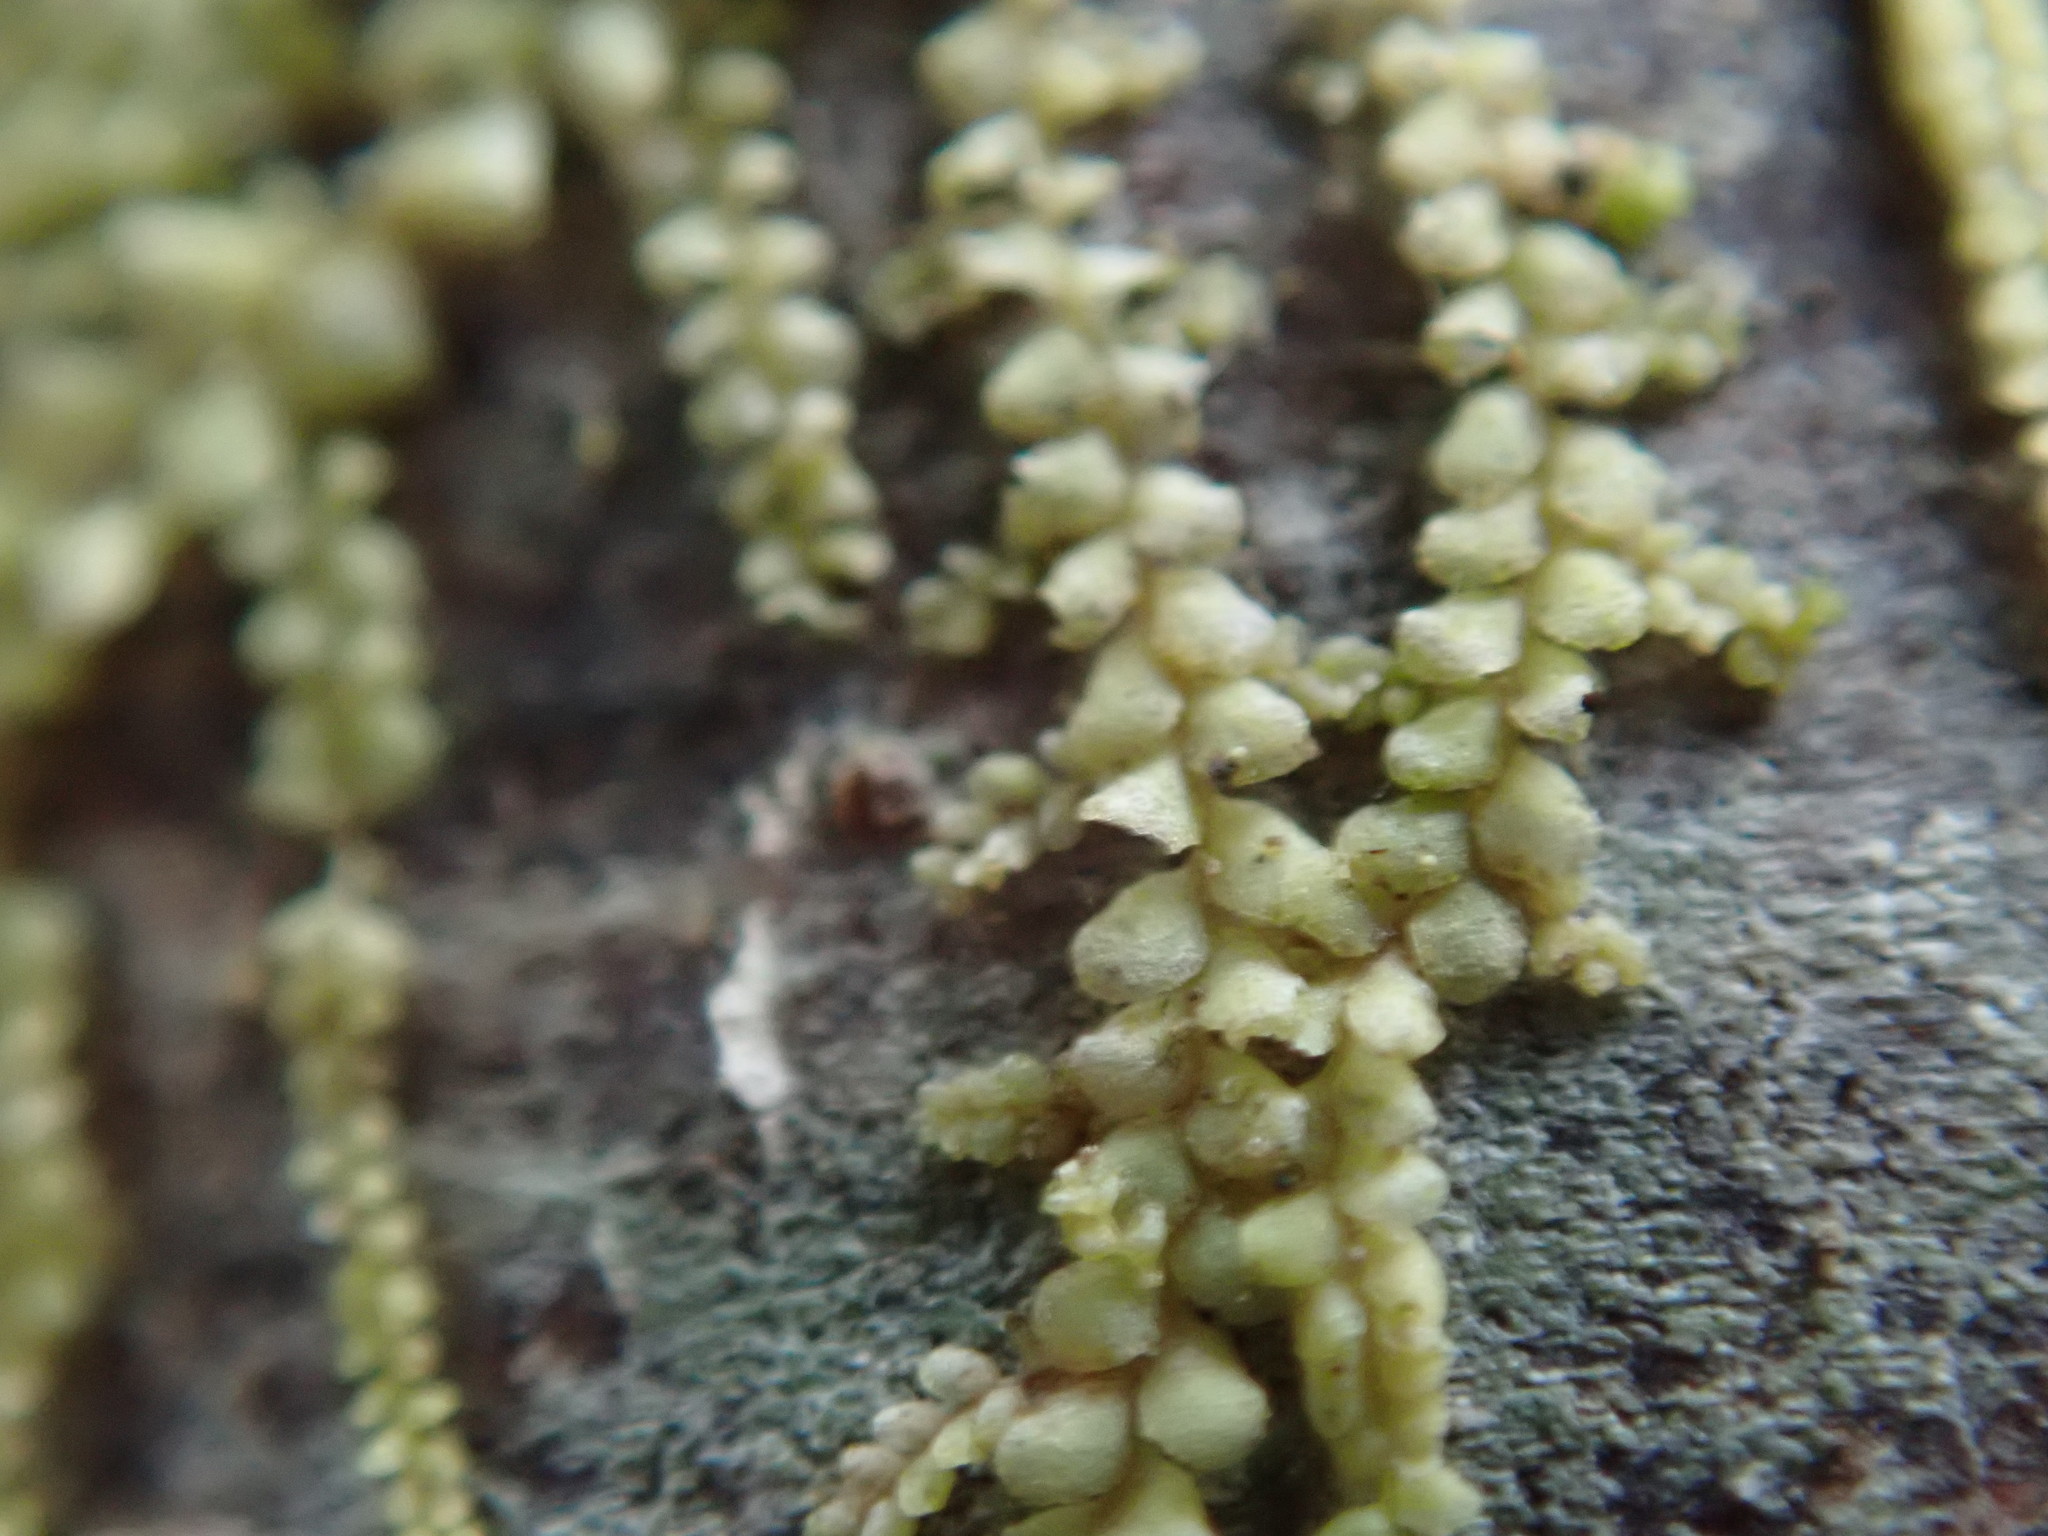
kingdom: Plantae
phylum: Marchantiophyta
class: Jungermanniopsida
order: Porellales
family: Radulaceae
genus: Radula
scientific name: Radula bolanderi
